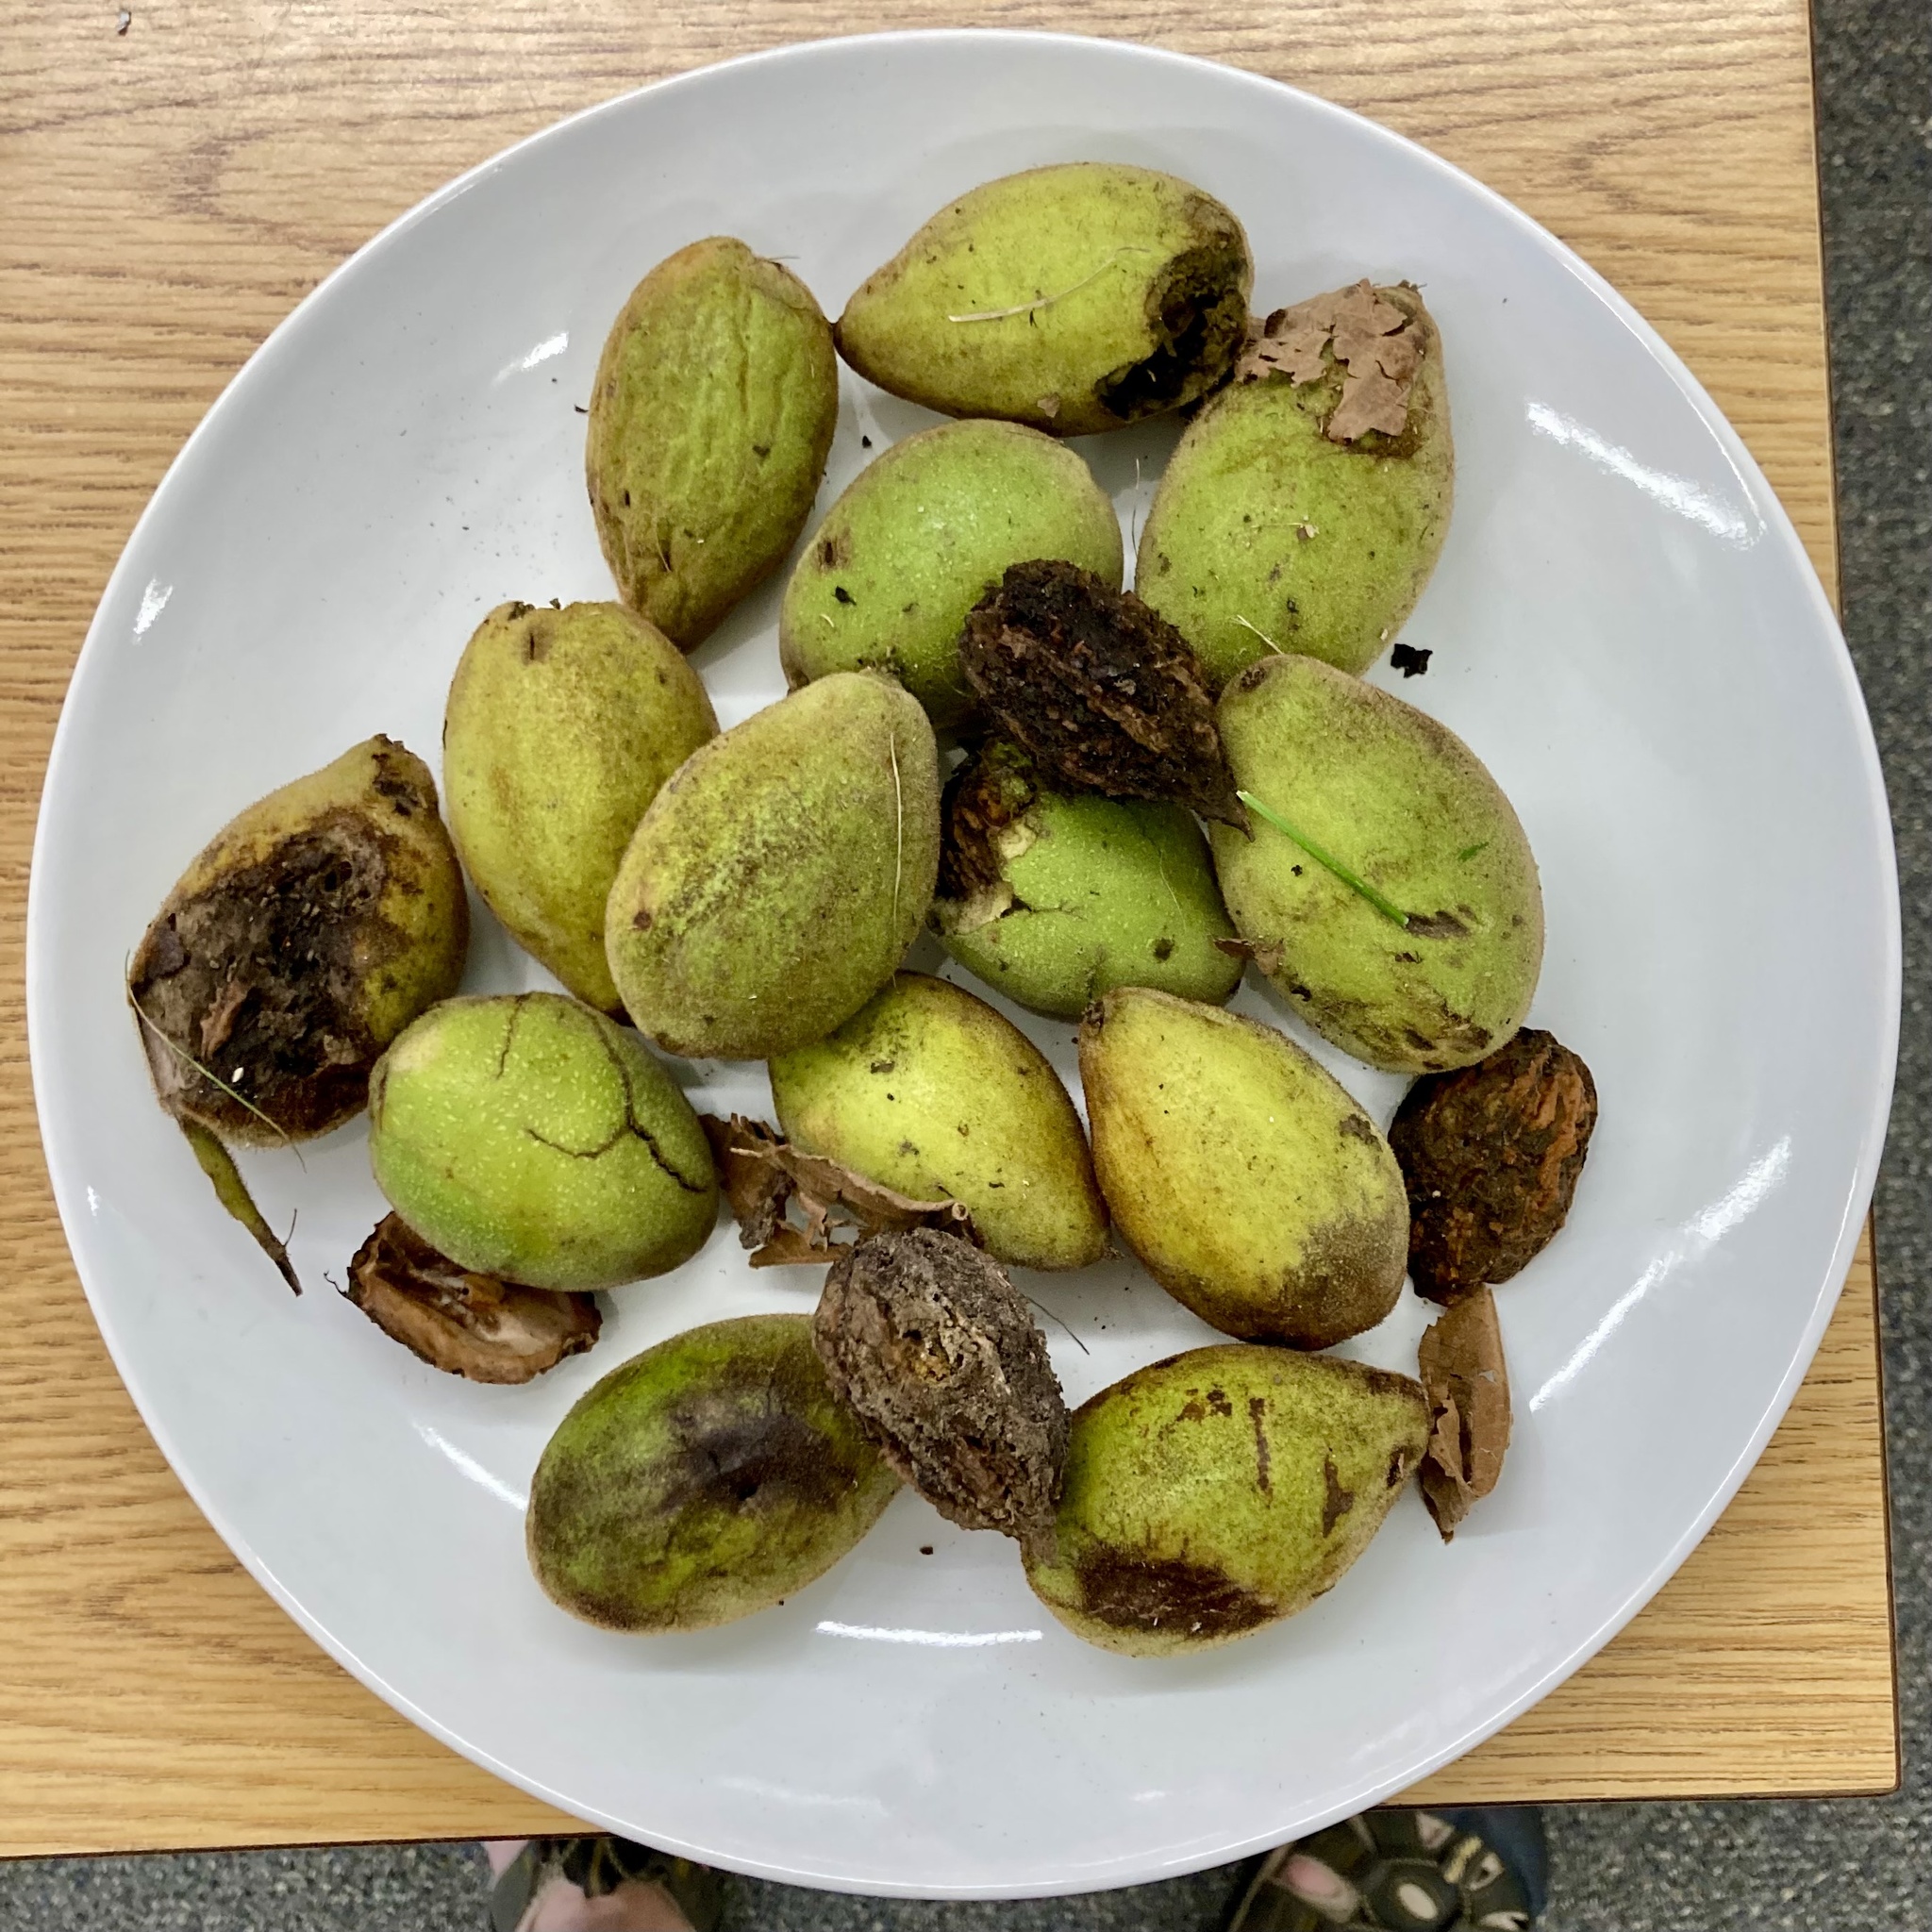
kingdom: Plantae
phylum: Tracheophyta
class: Magnoliopsida
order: Fagales
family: Juglandaceae
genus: Juglans
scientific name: Juglans cinerea
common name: Butternut
